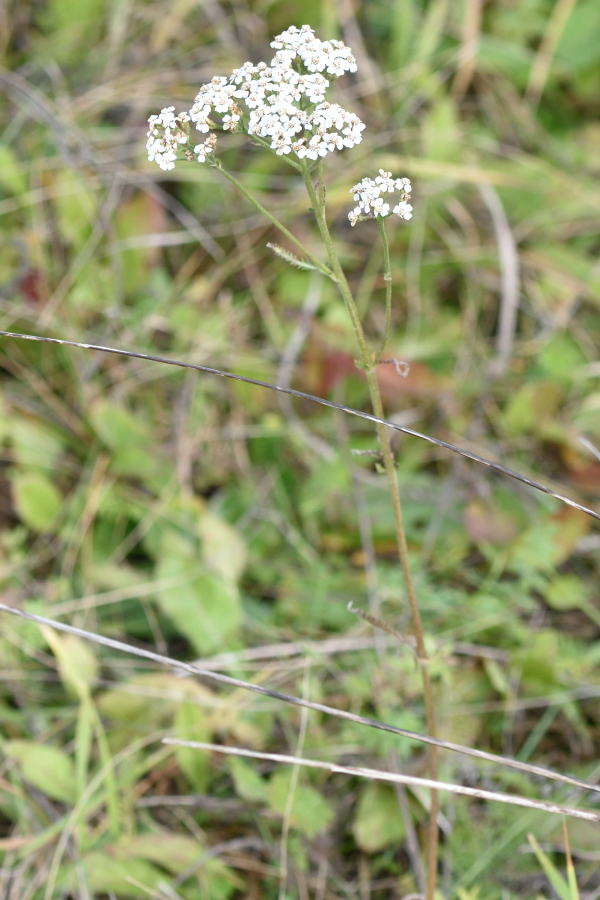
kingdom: Plantae
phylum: Tracheophyta
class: Magnoliopsida
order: Asterales
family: Asteraceae
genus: Achillea
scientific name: Achillea millefolium
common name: Yarrow
